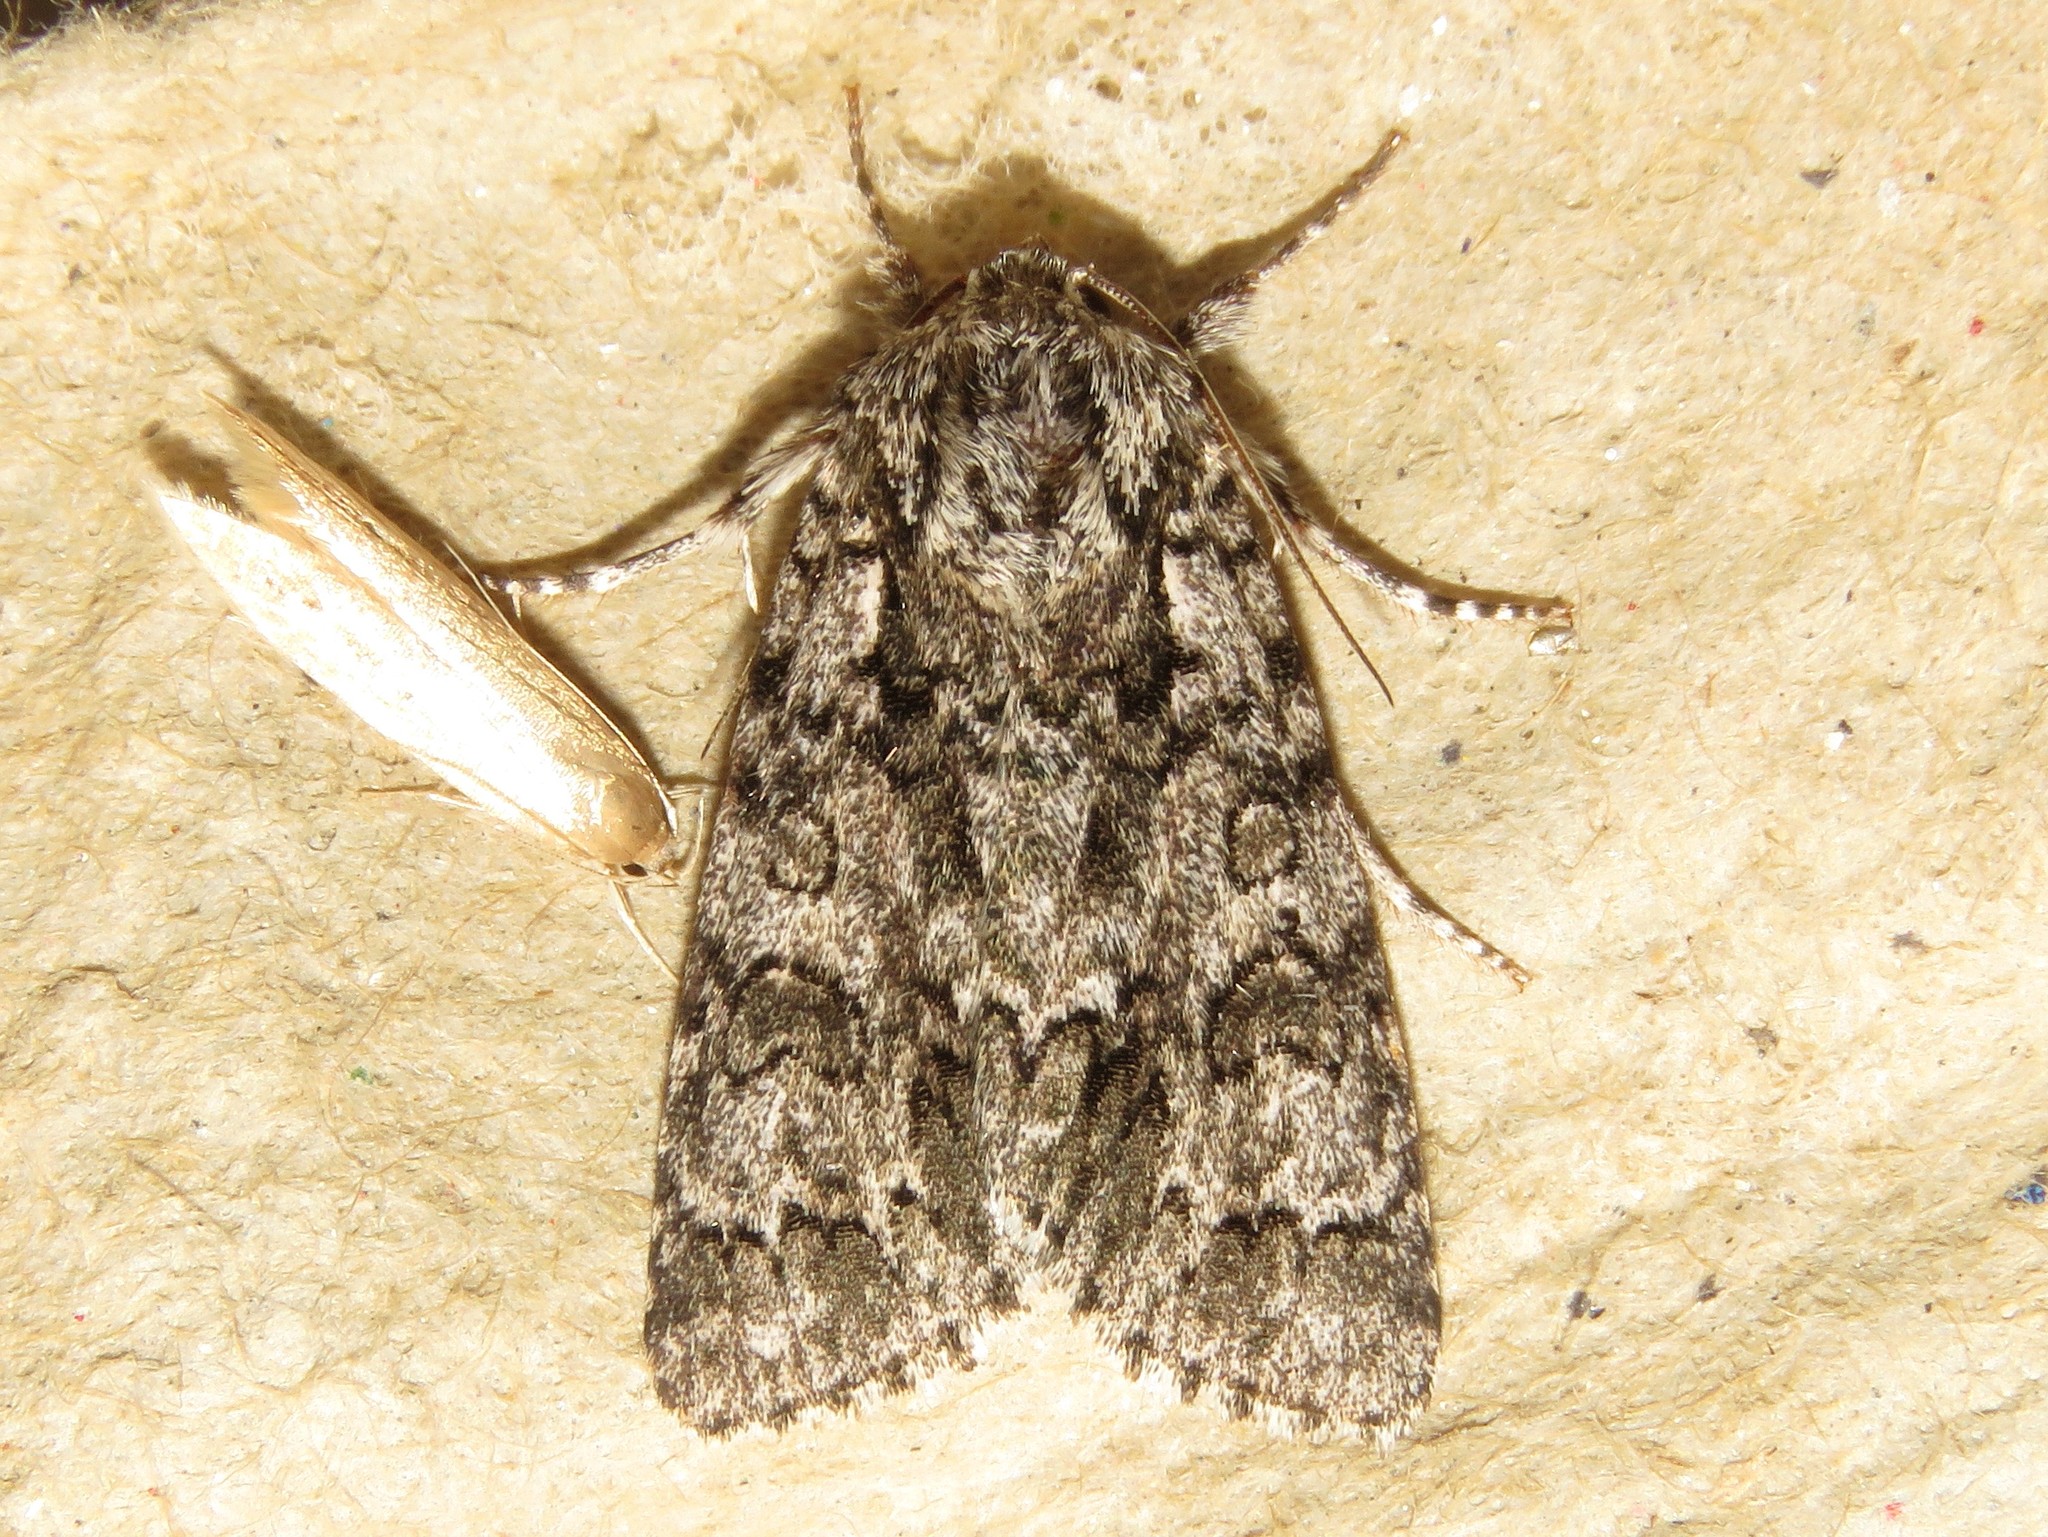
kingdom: Animalia
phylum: Arthropoda
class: Insecta
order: Lepidoptera
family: Noctuidae
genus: Acronicta
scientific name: Acronicta impressa
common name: Impressed dagger
